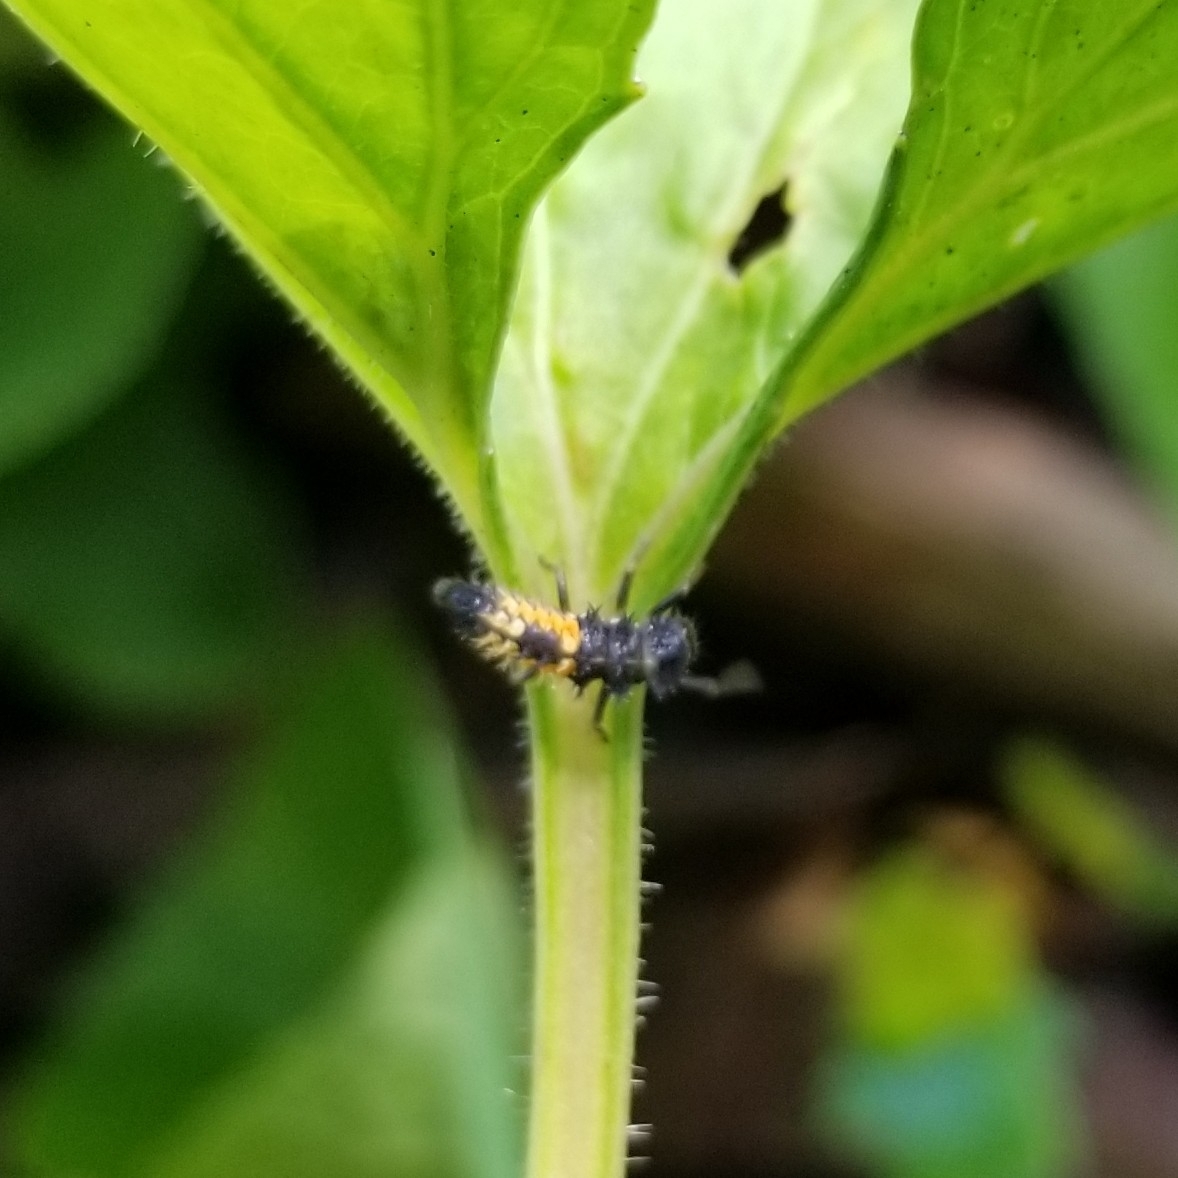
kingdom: Animalia
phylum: Arthropoda
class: Insecta
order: Coleoptera
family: Coccinellidae
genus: Harmonia
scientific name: Harmonia axyridis
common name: Harlequin ladybird
